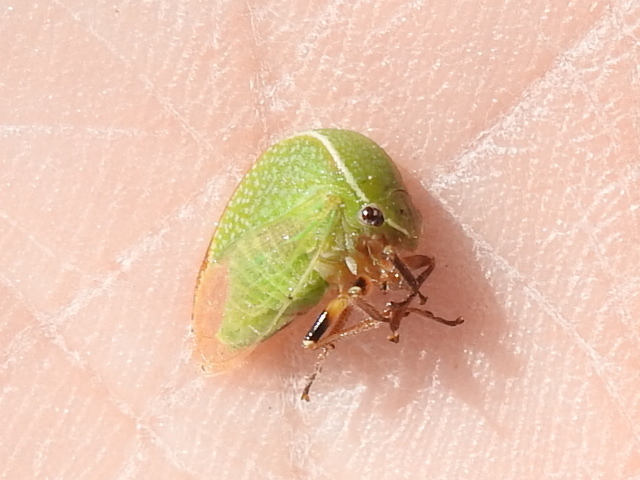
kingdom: Animalia
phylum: Arthropoda
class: Insecta
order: Hemiptera
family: Membracidae
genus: Tortistilus
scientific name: Tortistilus inermis
